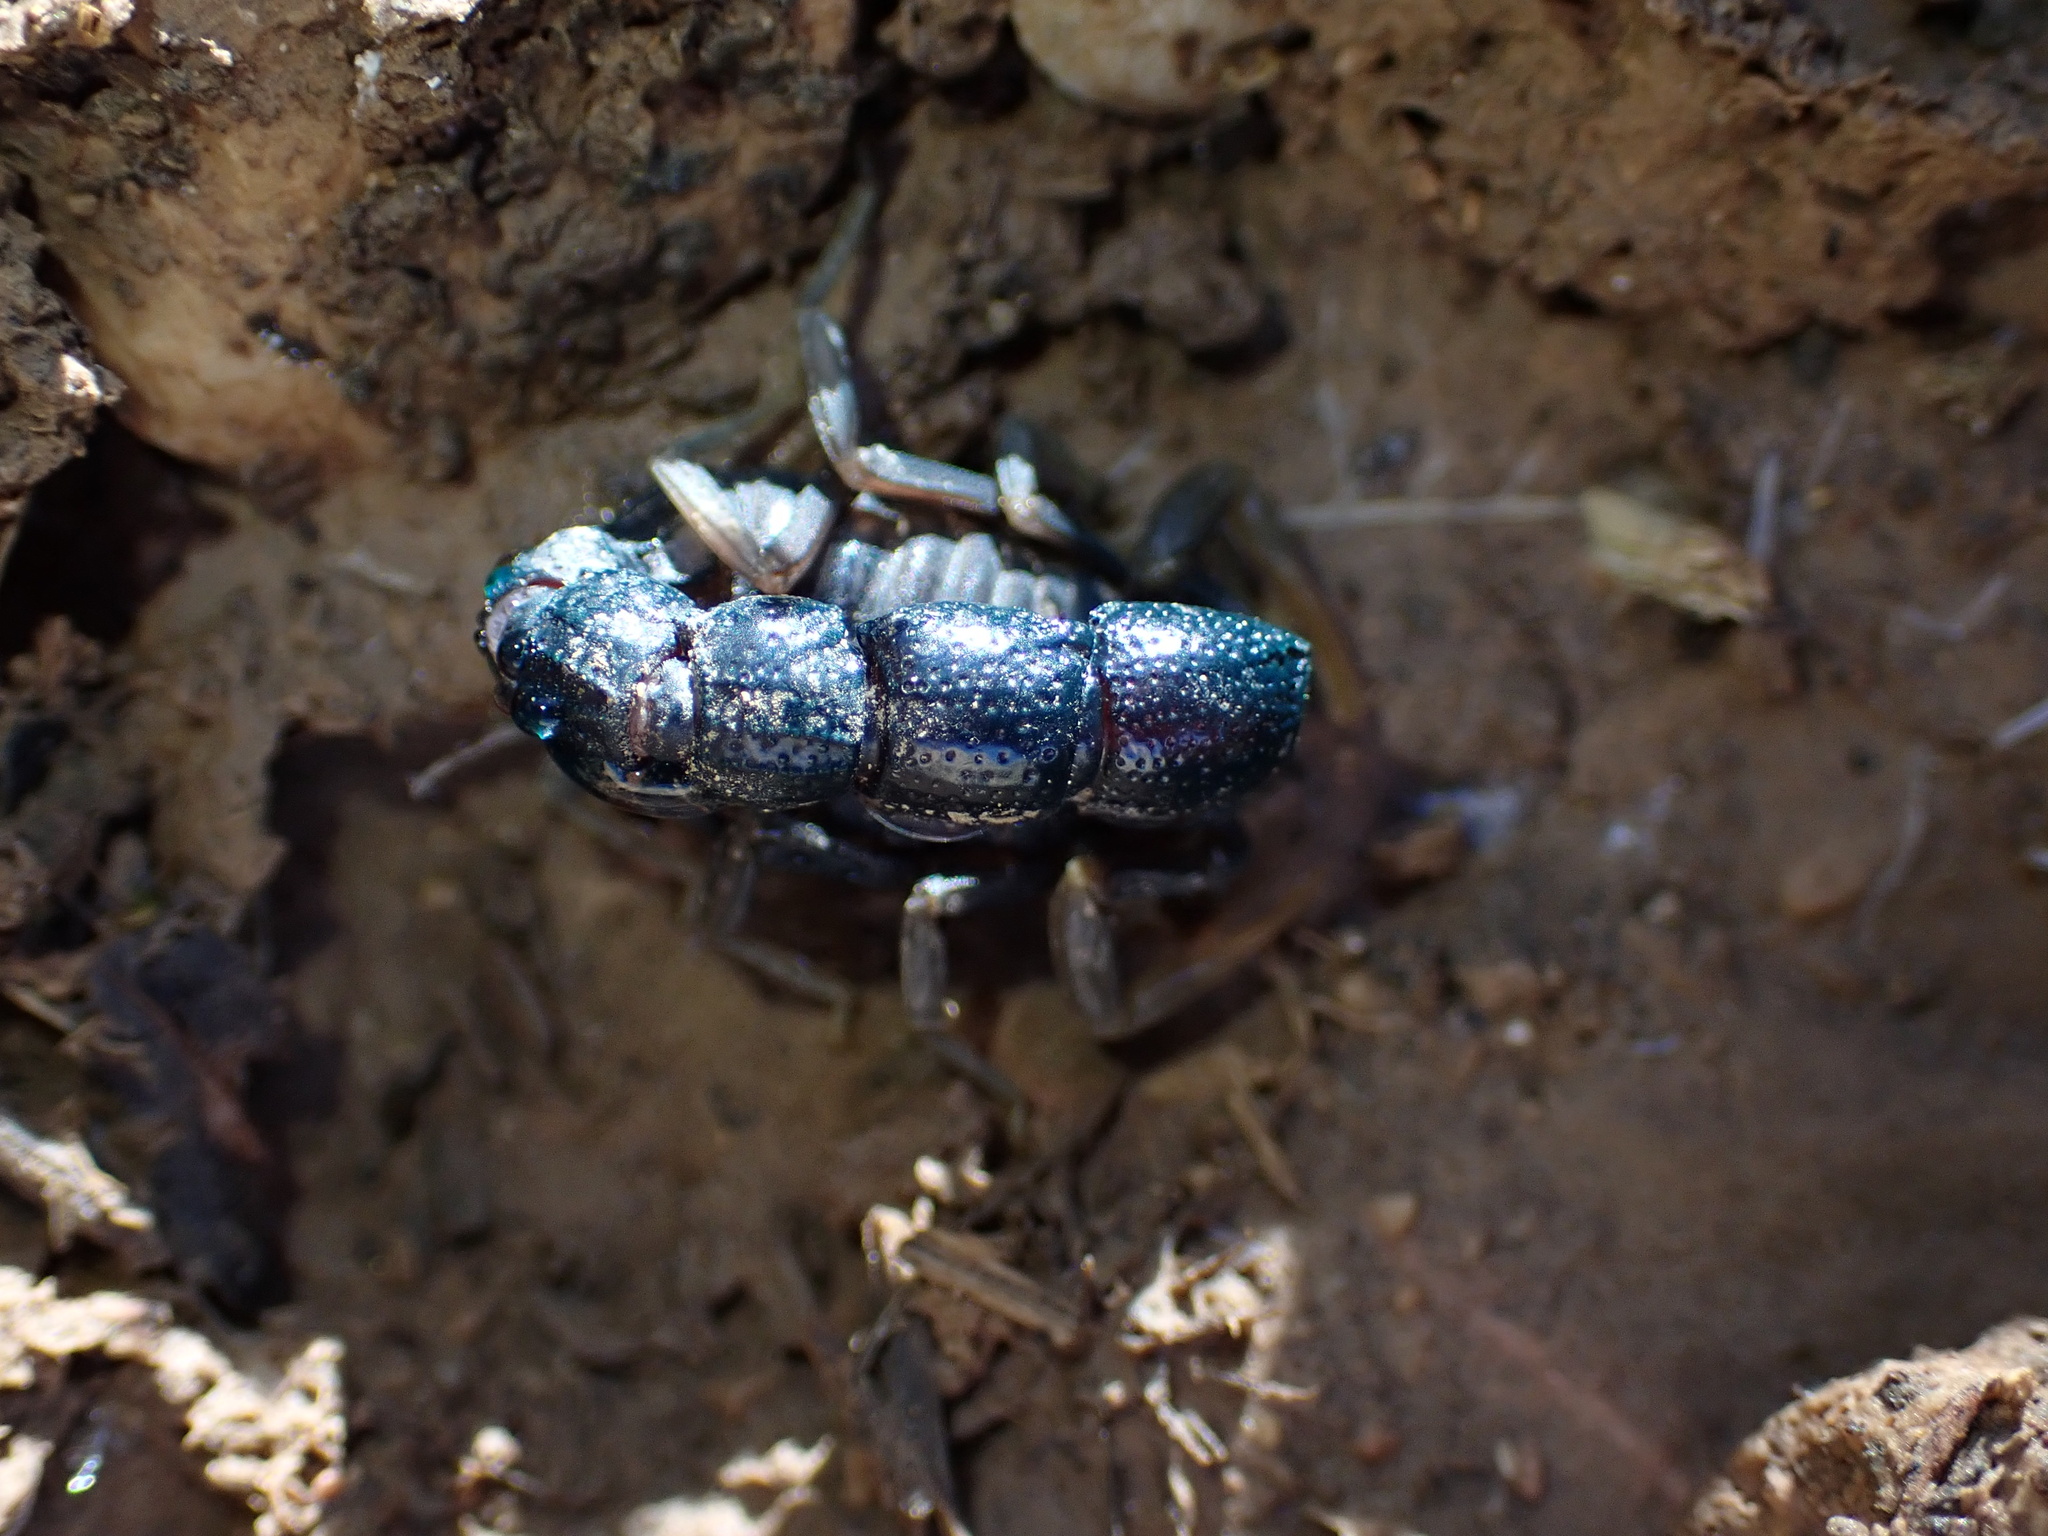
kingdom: Animalia
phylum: Arthropoda
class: Arachnida
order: Scorpiones
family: Buthidae
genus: Orthochirus
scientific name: Orthochirus farzanpayi
